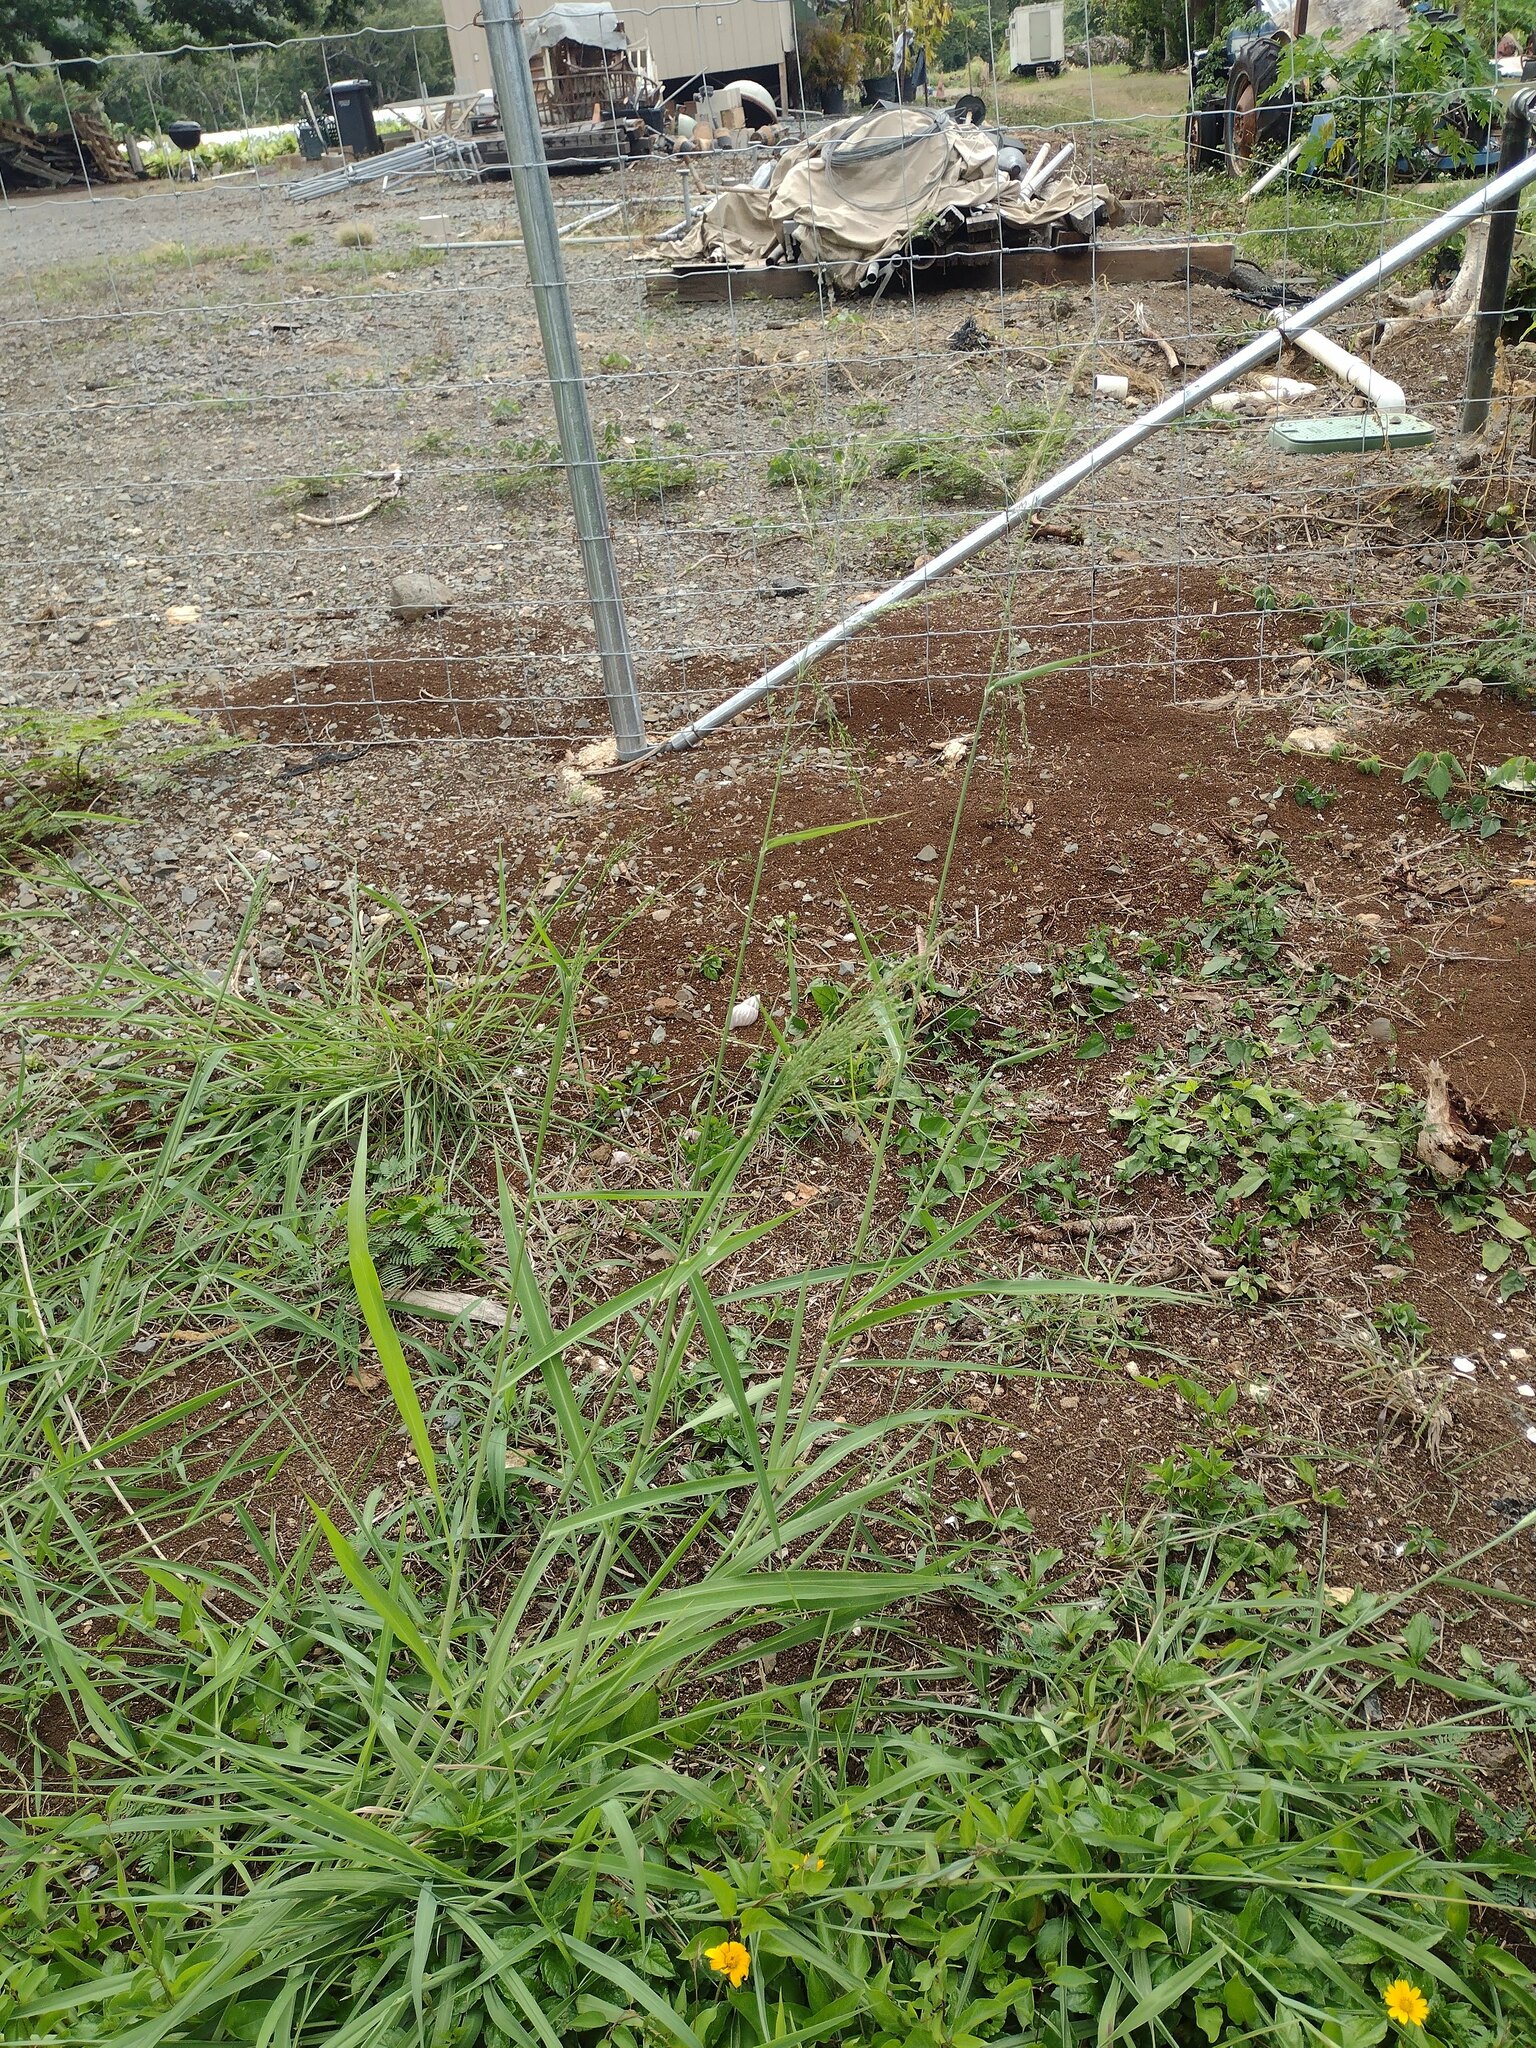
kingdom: Plantae
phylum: Tracheophyta
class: Liliopsida
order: Poales
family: Poaceae
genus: Megathyrsus
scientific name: Megathyrsus maximus
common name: Guineagrass
